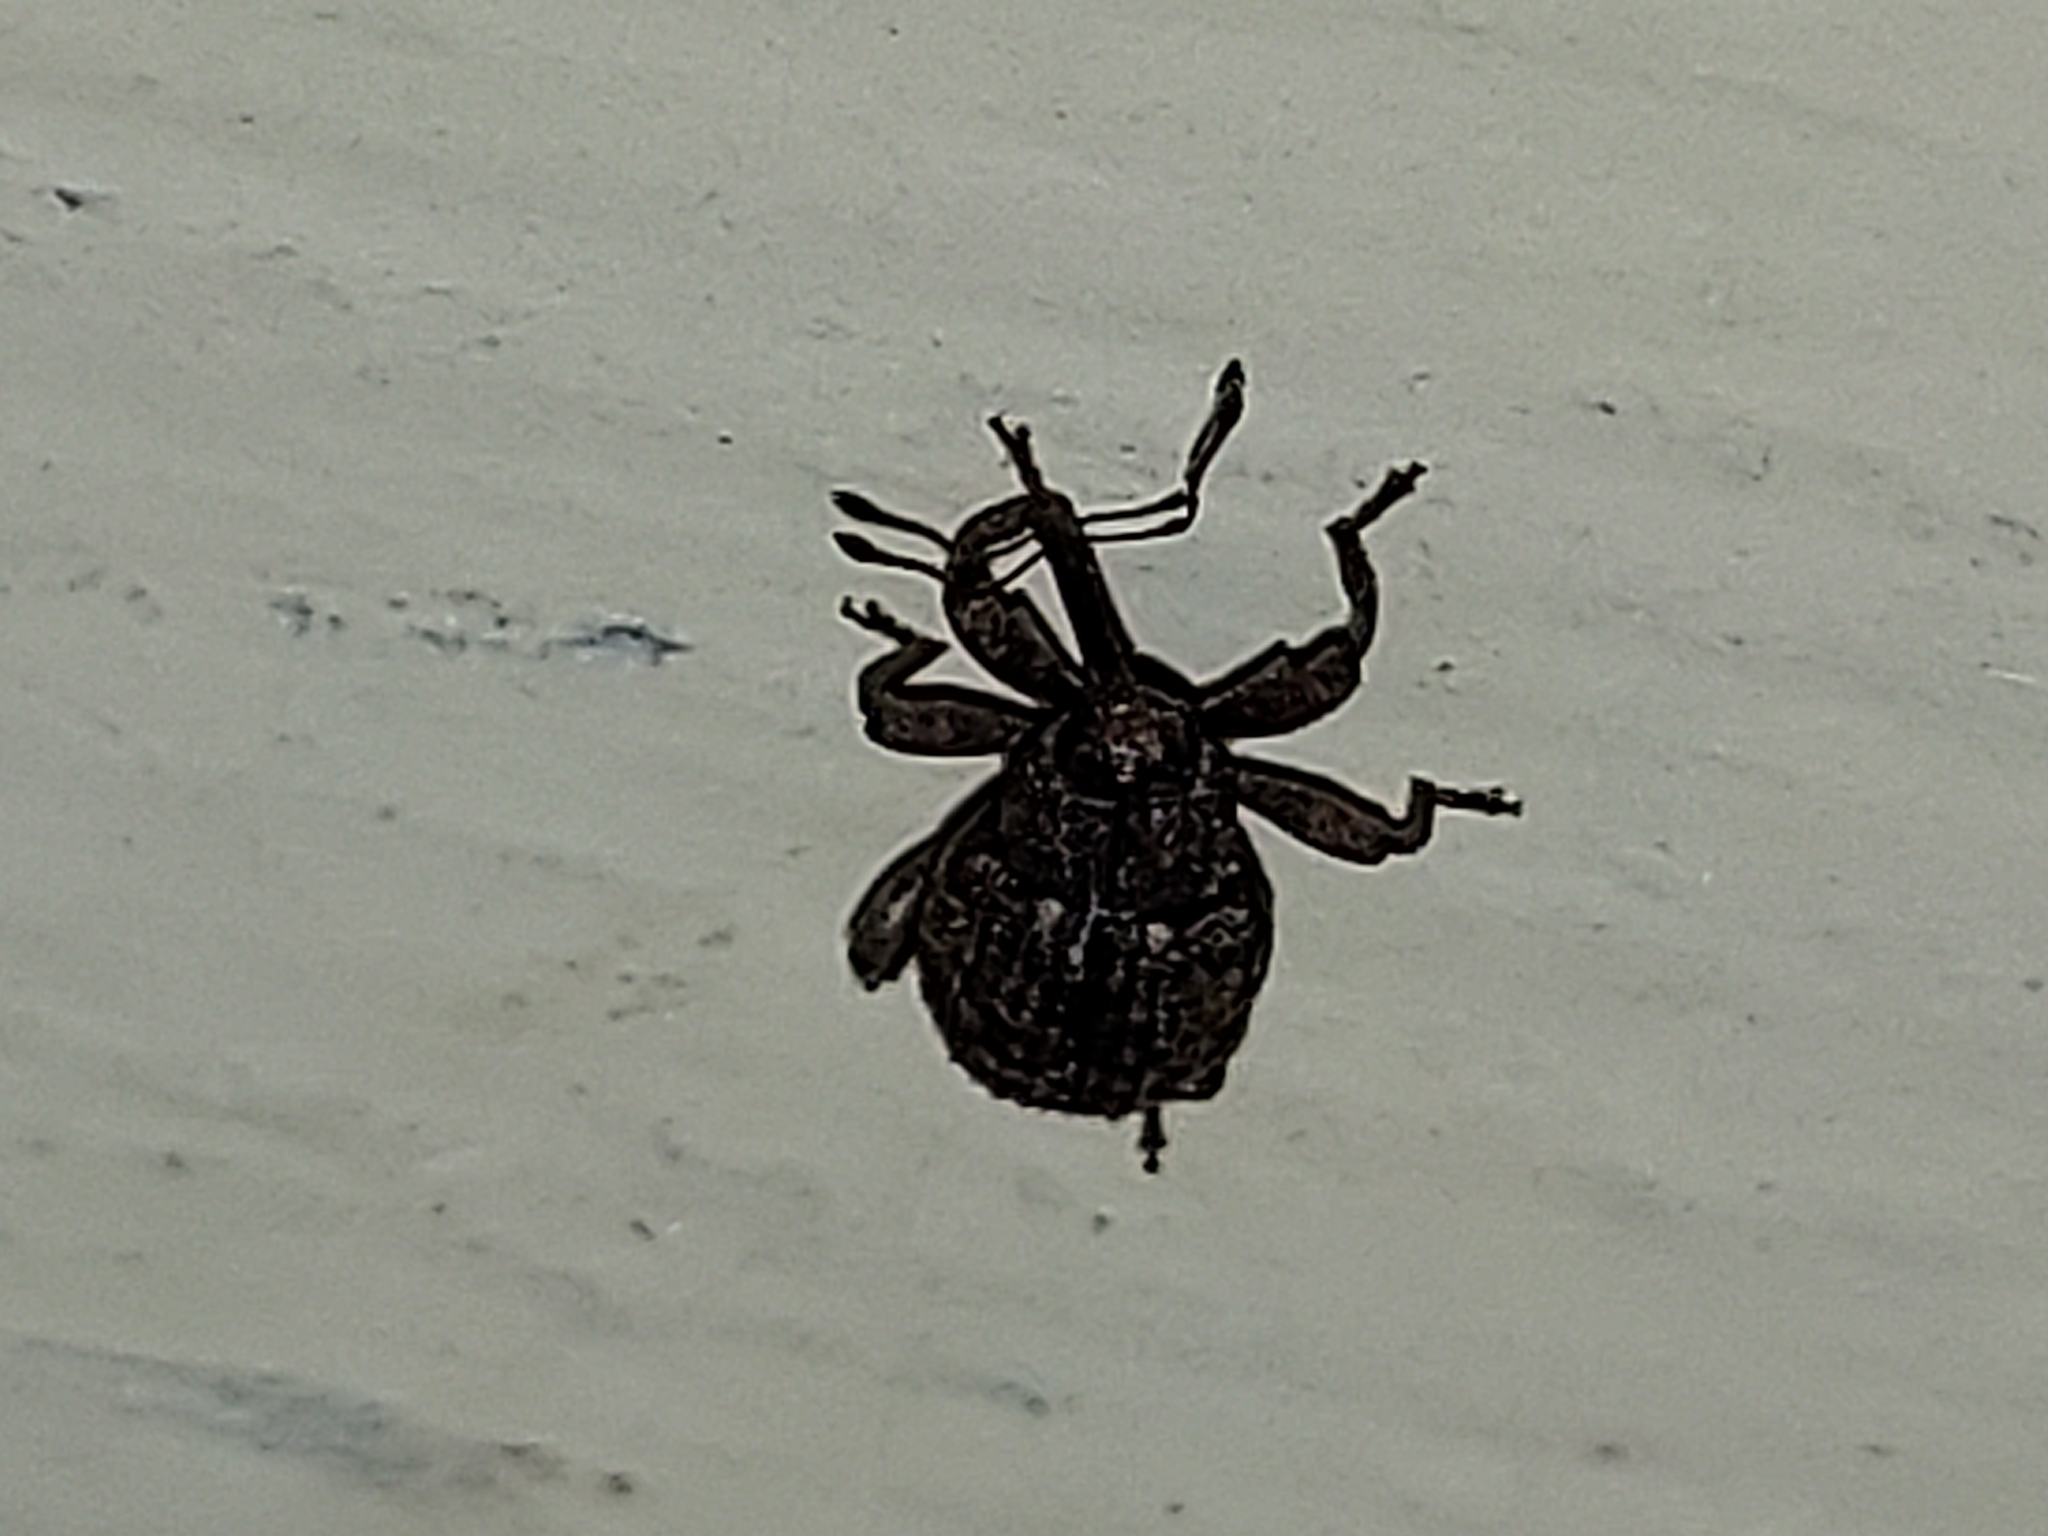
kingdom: Animalia
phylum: Arthropoda
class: Insecta
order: Coleoptera
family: Curculionidae
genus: Conotrachelus
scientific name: Conotrachelus posticatus
